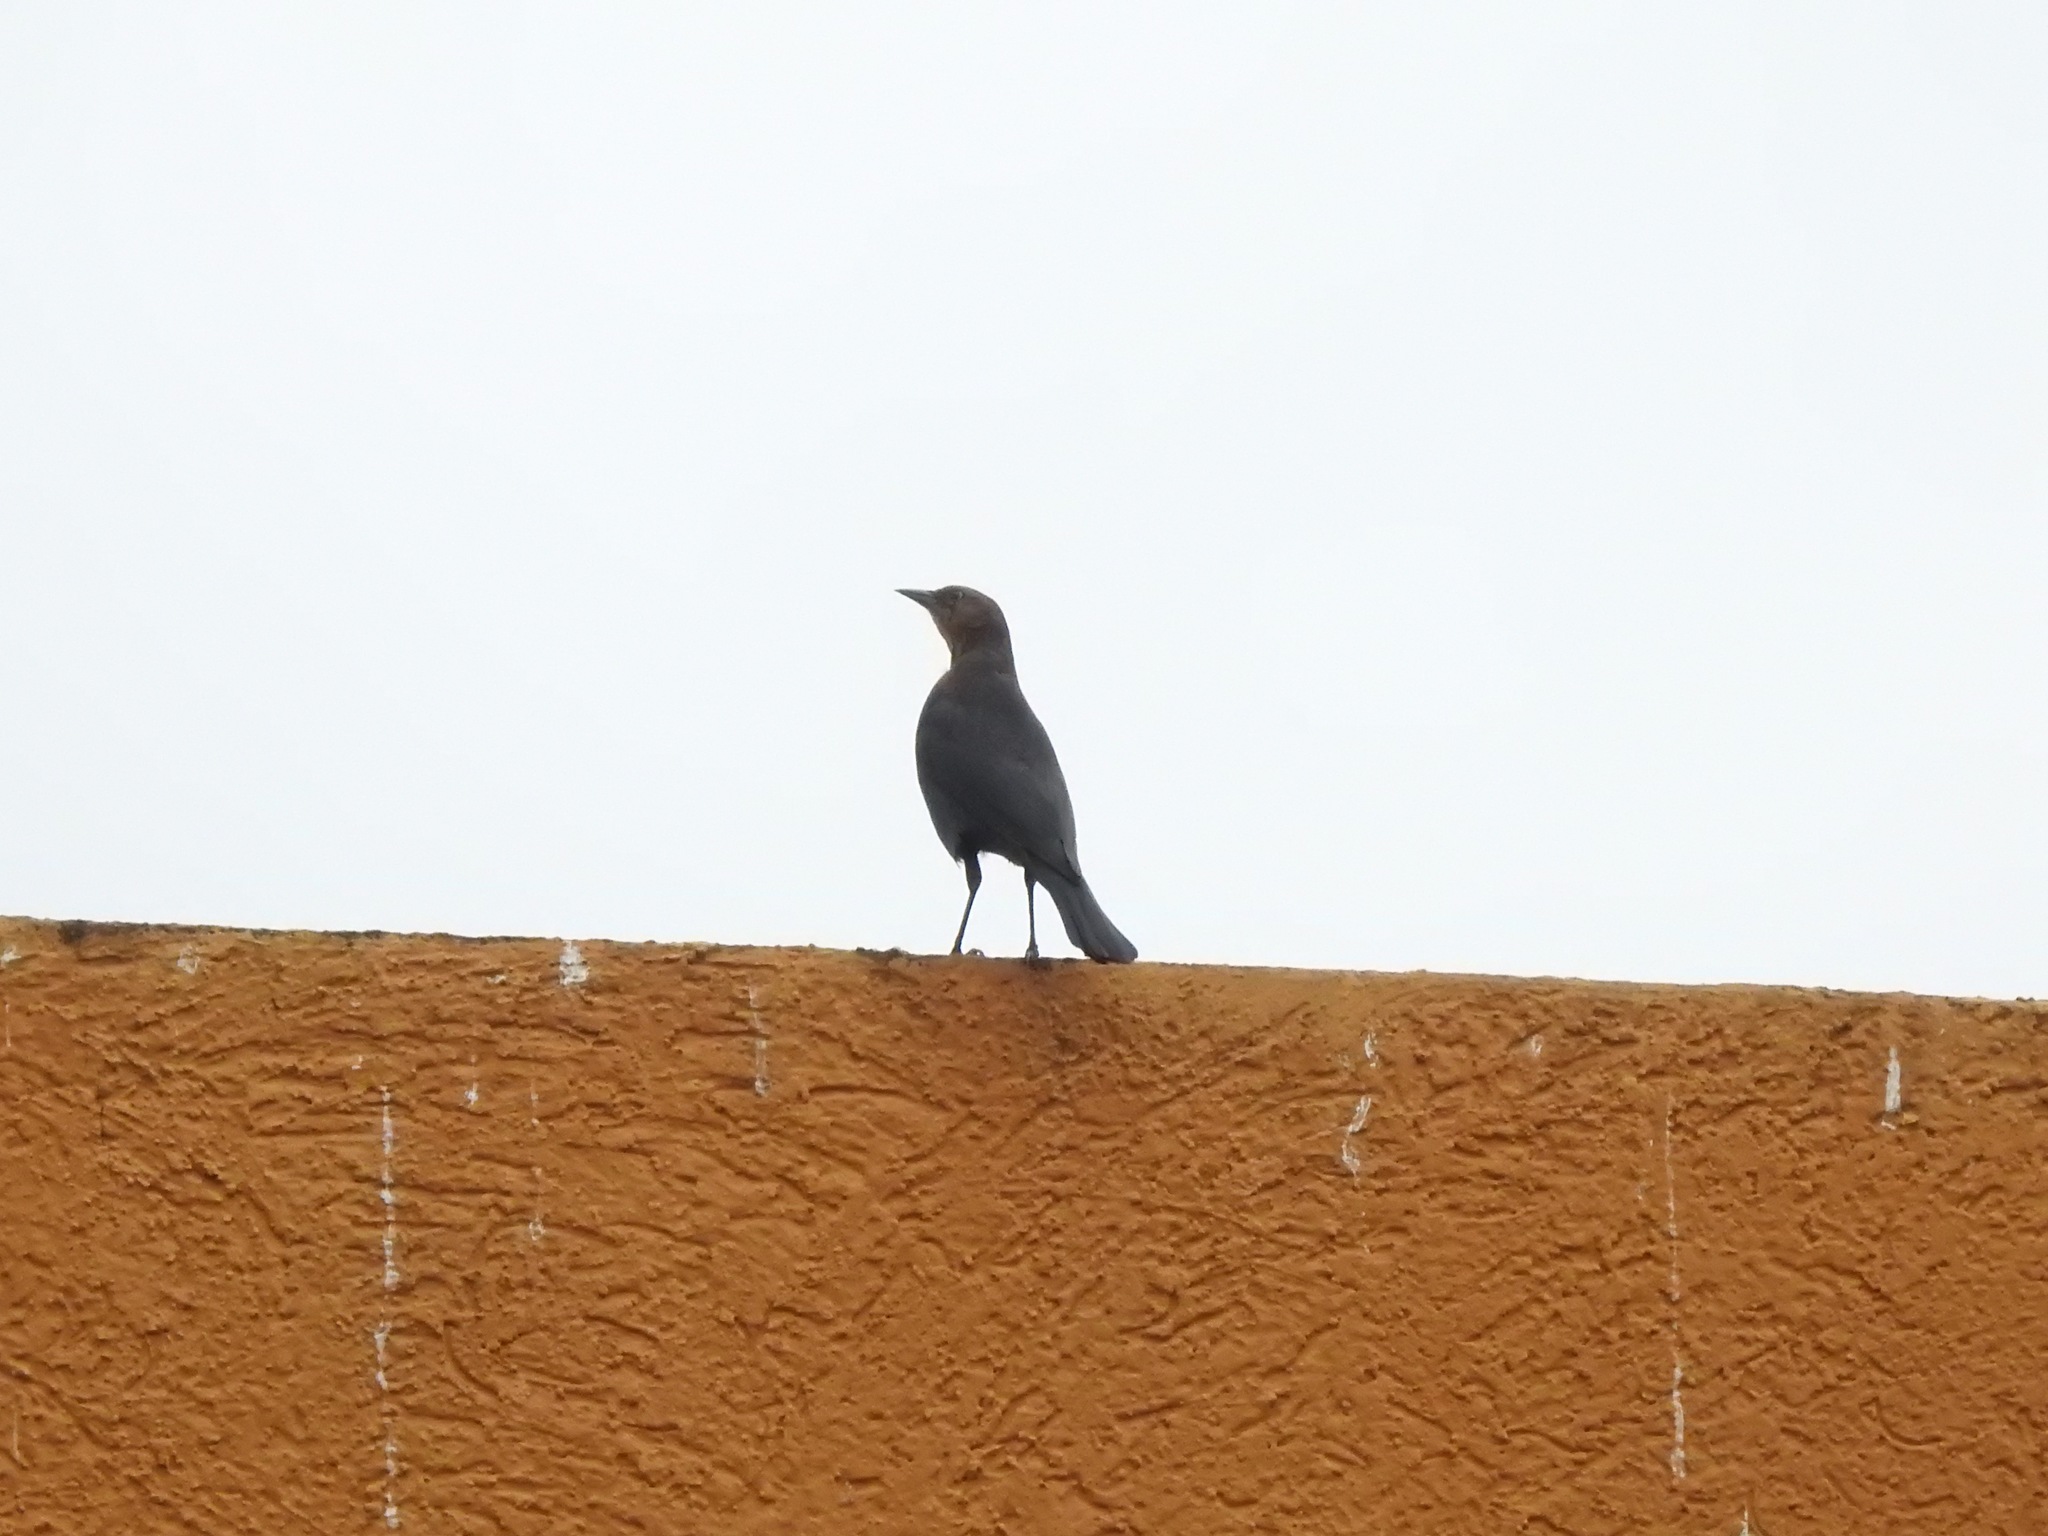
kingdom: Animalia
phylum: Chordata
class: Aves
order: Passeriformes
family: Icteridae
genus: Euphagus
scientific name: Euphagus cyanocephalus
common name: Brewer's blackbird
